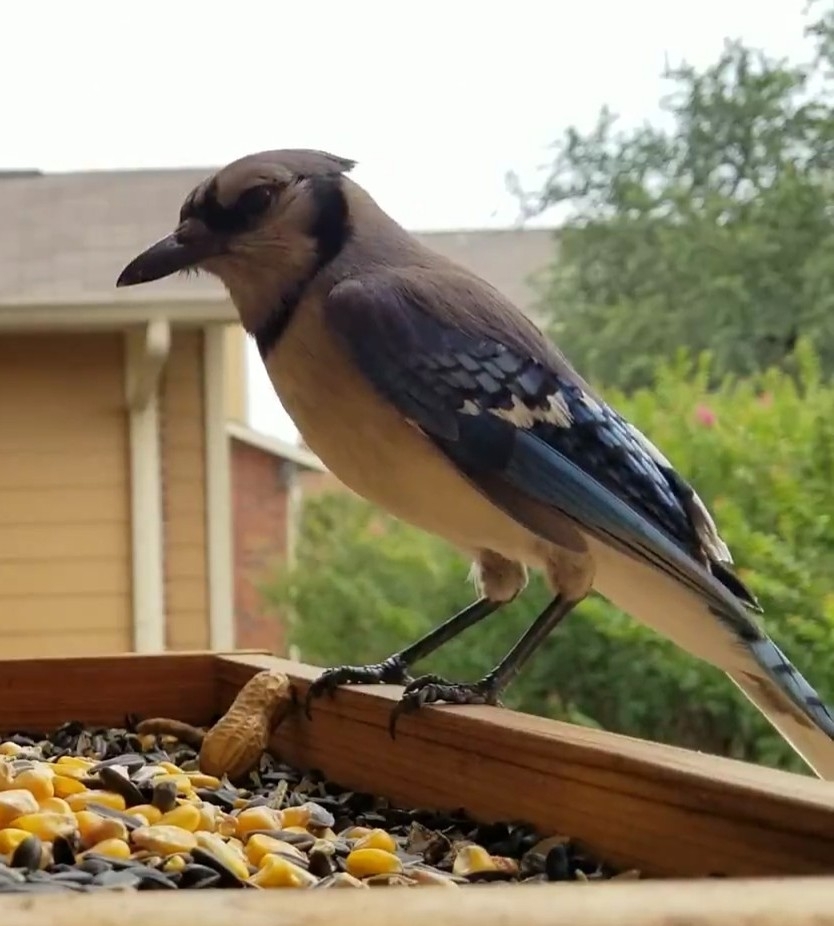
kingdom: Animalia
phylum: Chordata
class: Aves
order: Passeriformes
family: Corvidae
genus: Cyanocitta
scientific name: Cyanocitta cristata
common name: Blue jay
